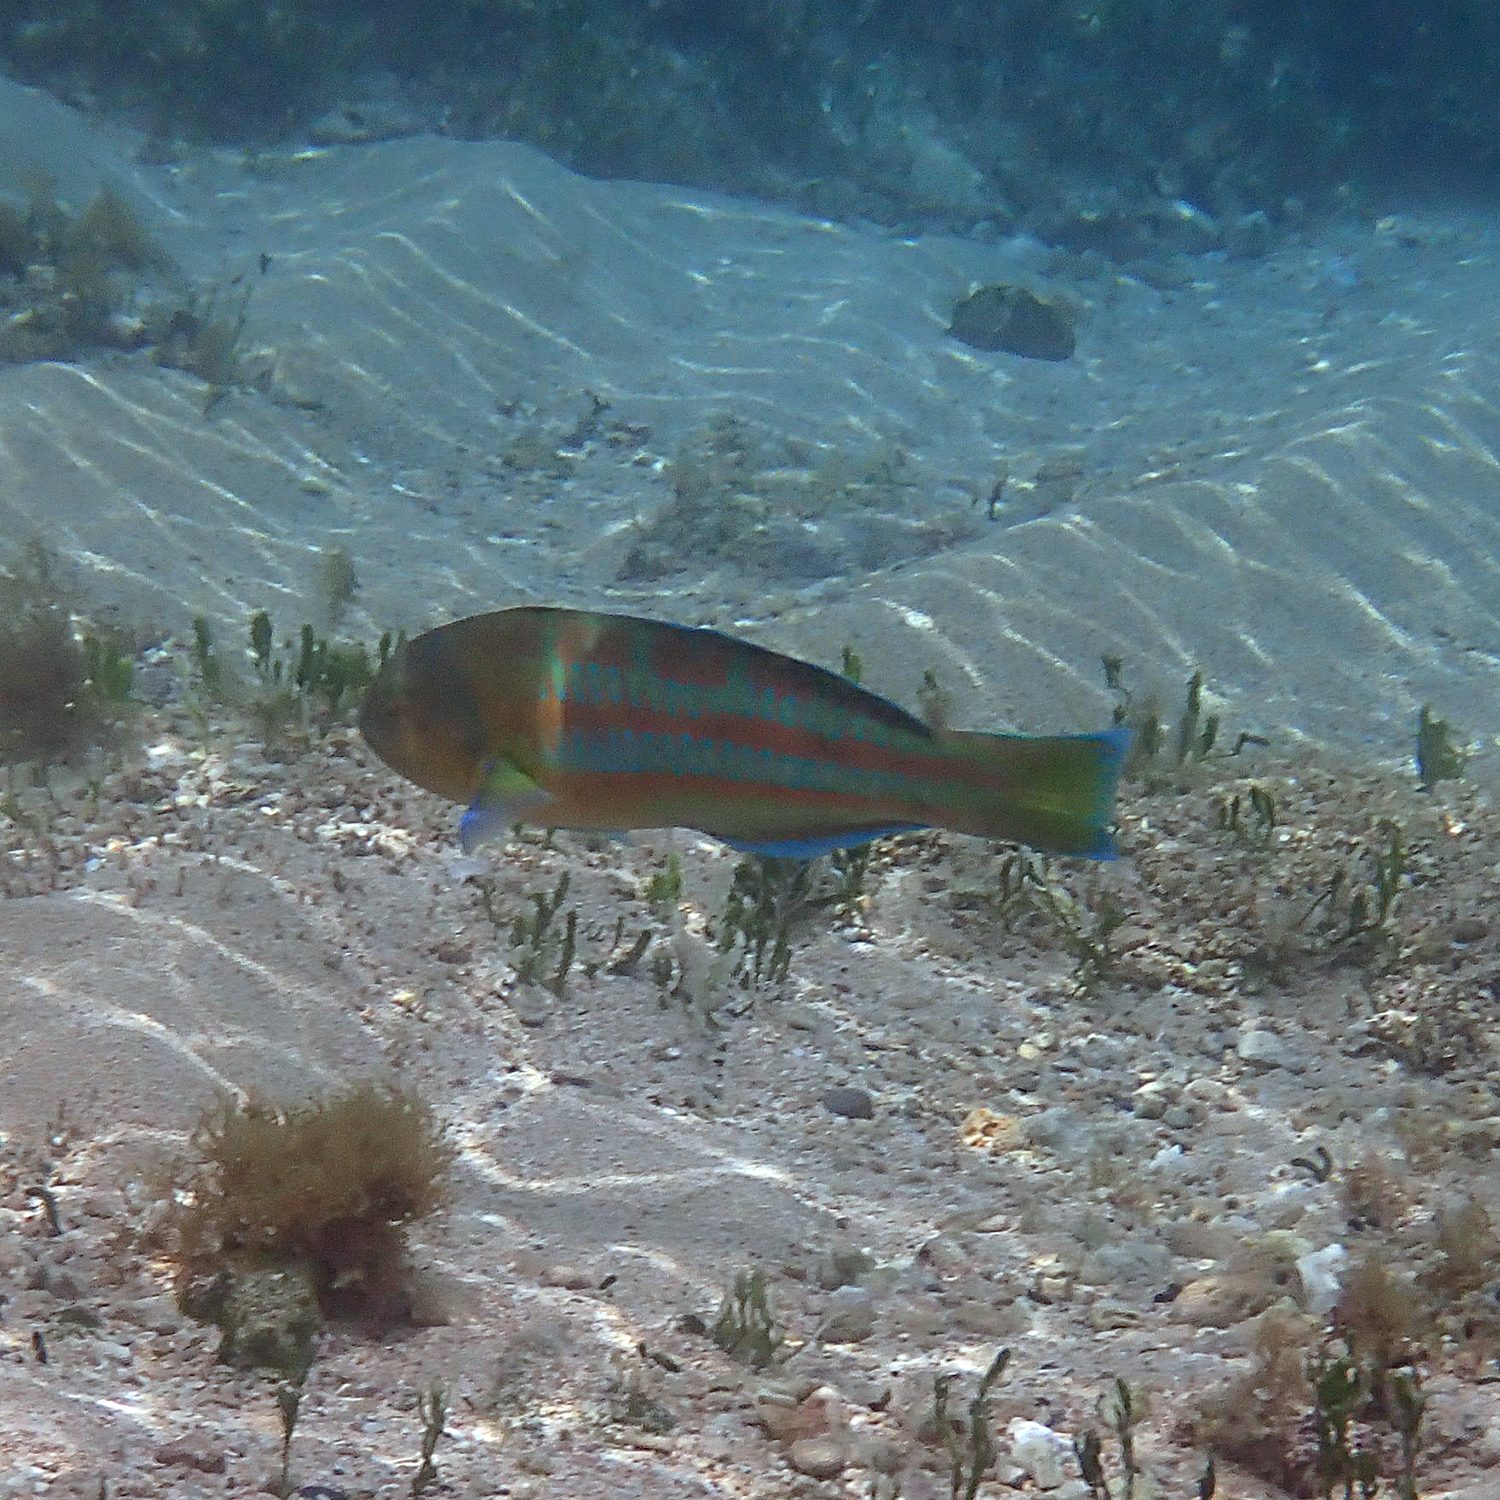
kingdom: Animalia
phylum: Chordata
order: Perciformes
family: Labridae
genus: Thalassoma
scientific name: Thalassoma trilobatum
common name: Christmas wrasse
